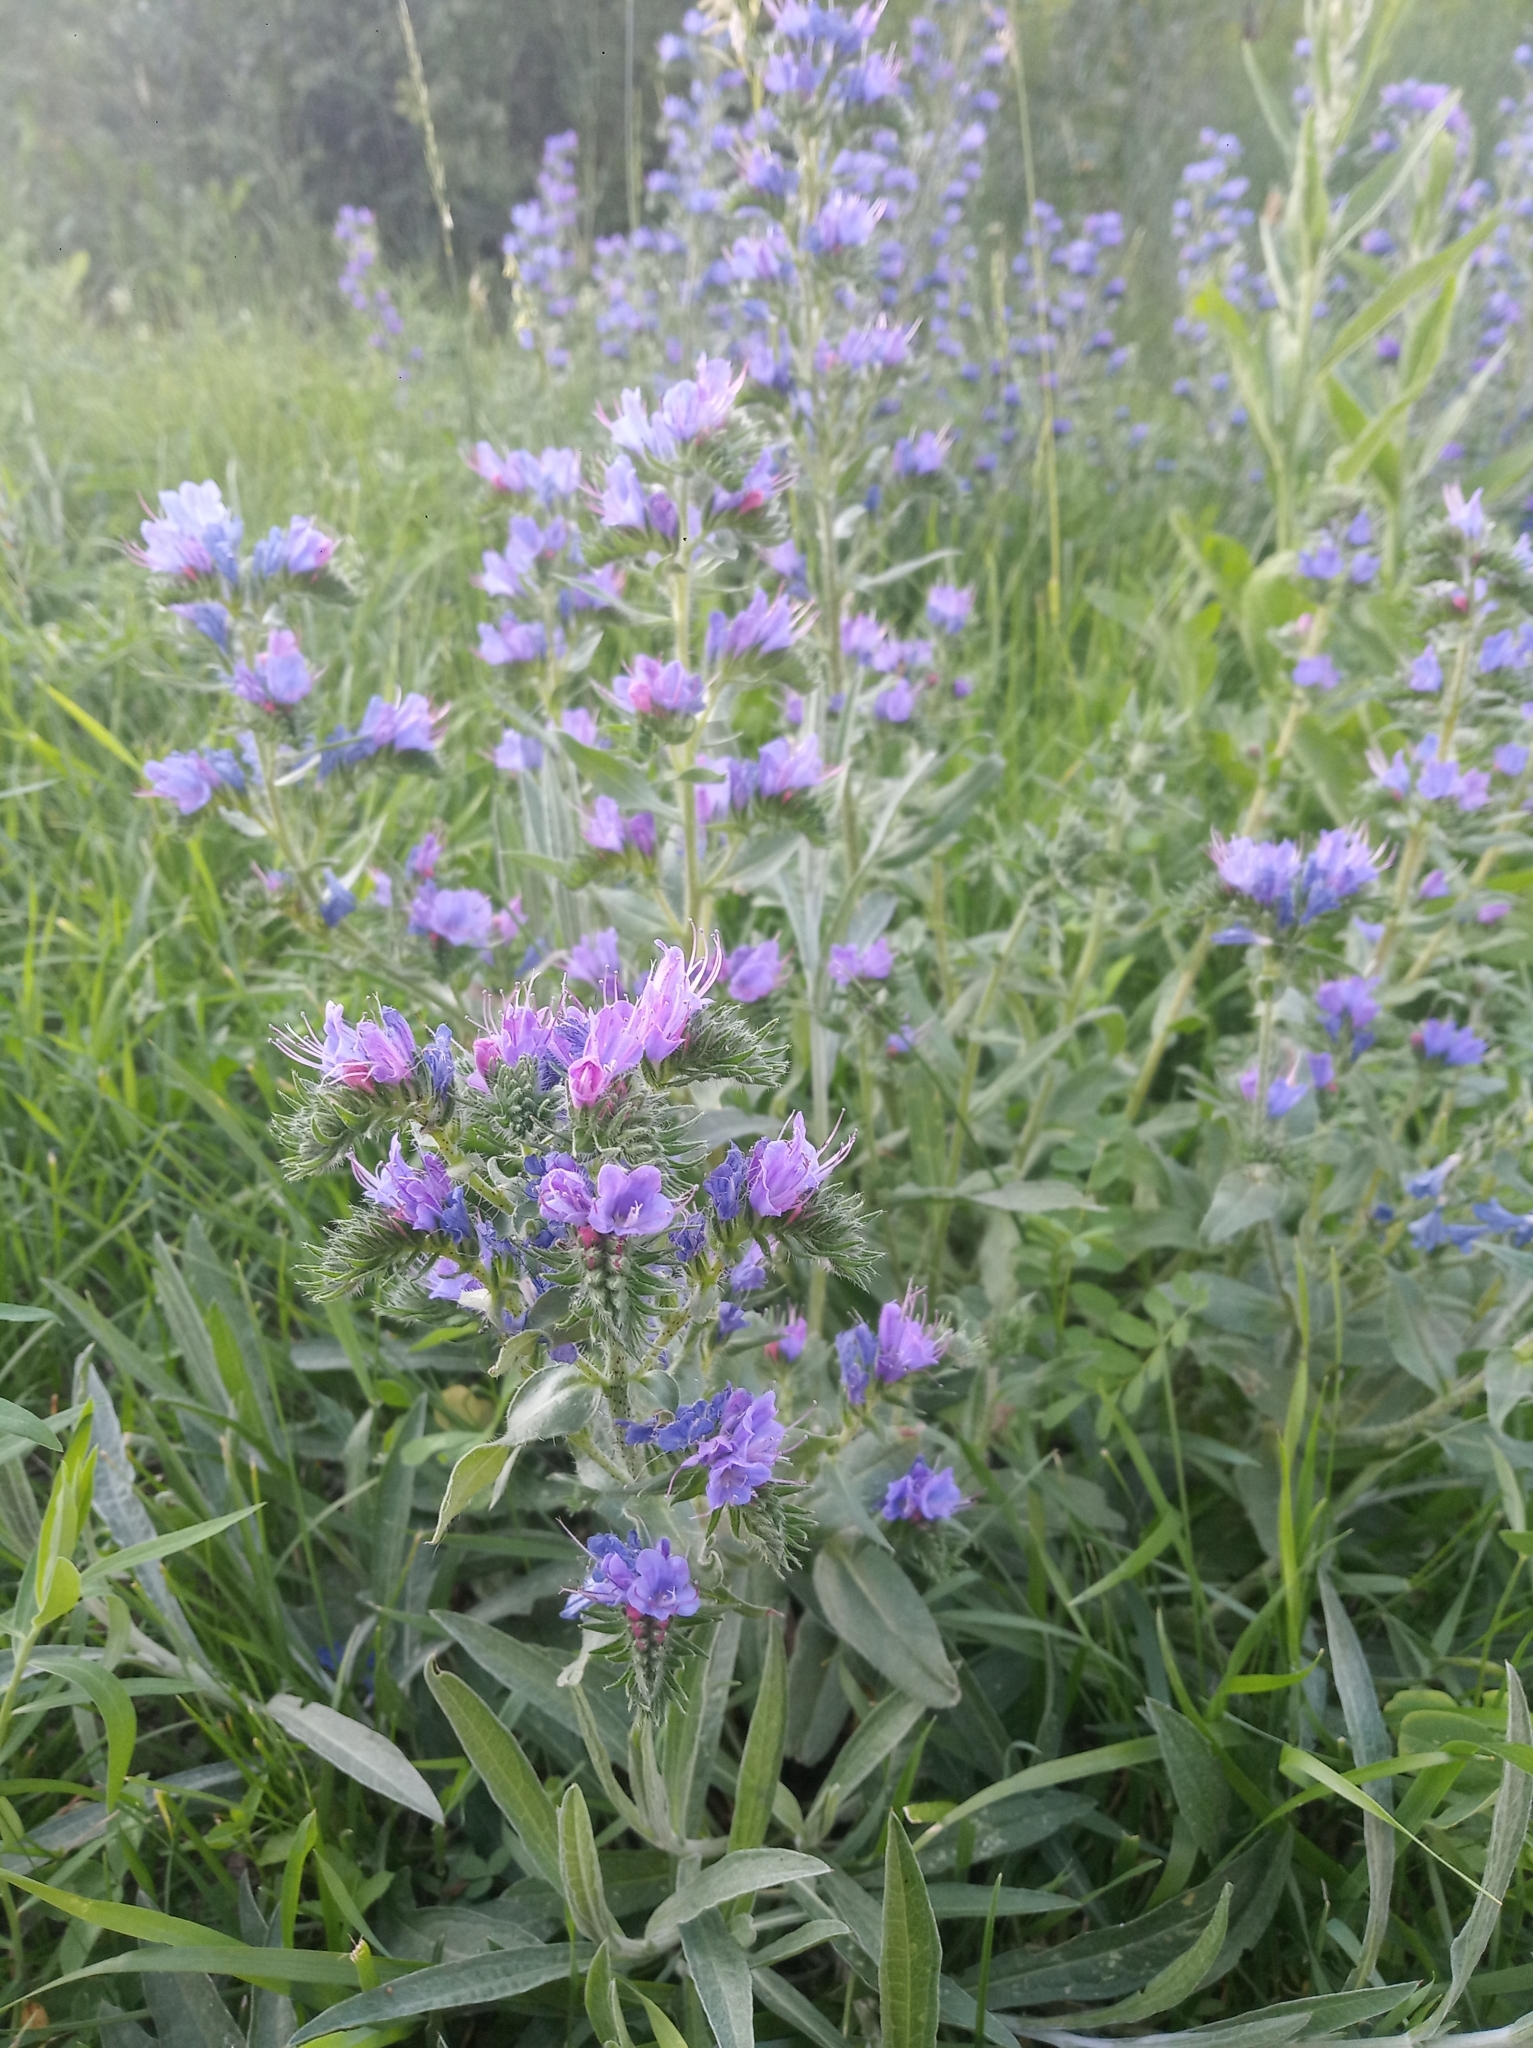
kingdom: Plantae
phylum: Tracheophyta
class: Magnoliopsida
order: Boraginales
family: Boraginaceae
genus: Echium
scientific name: Echium vulgare
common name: Common viper's bugloss
